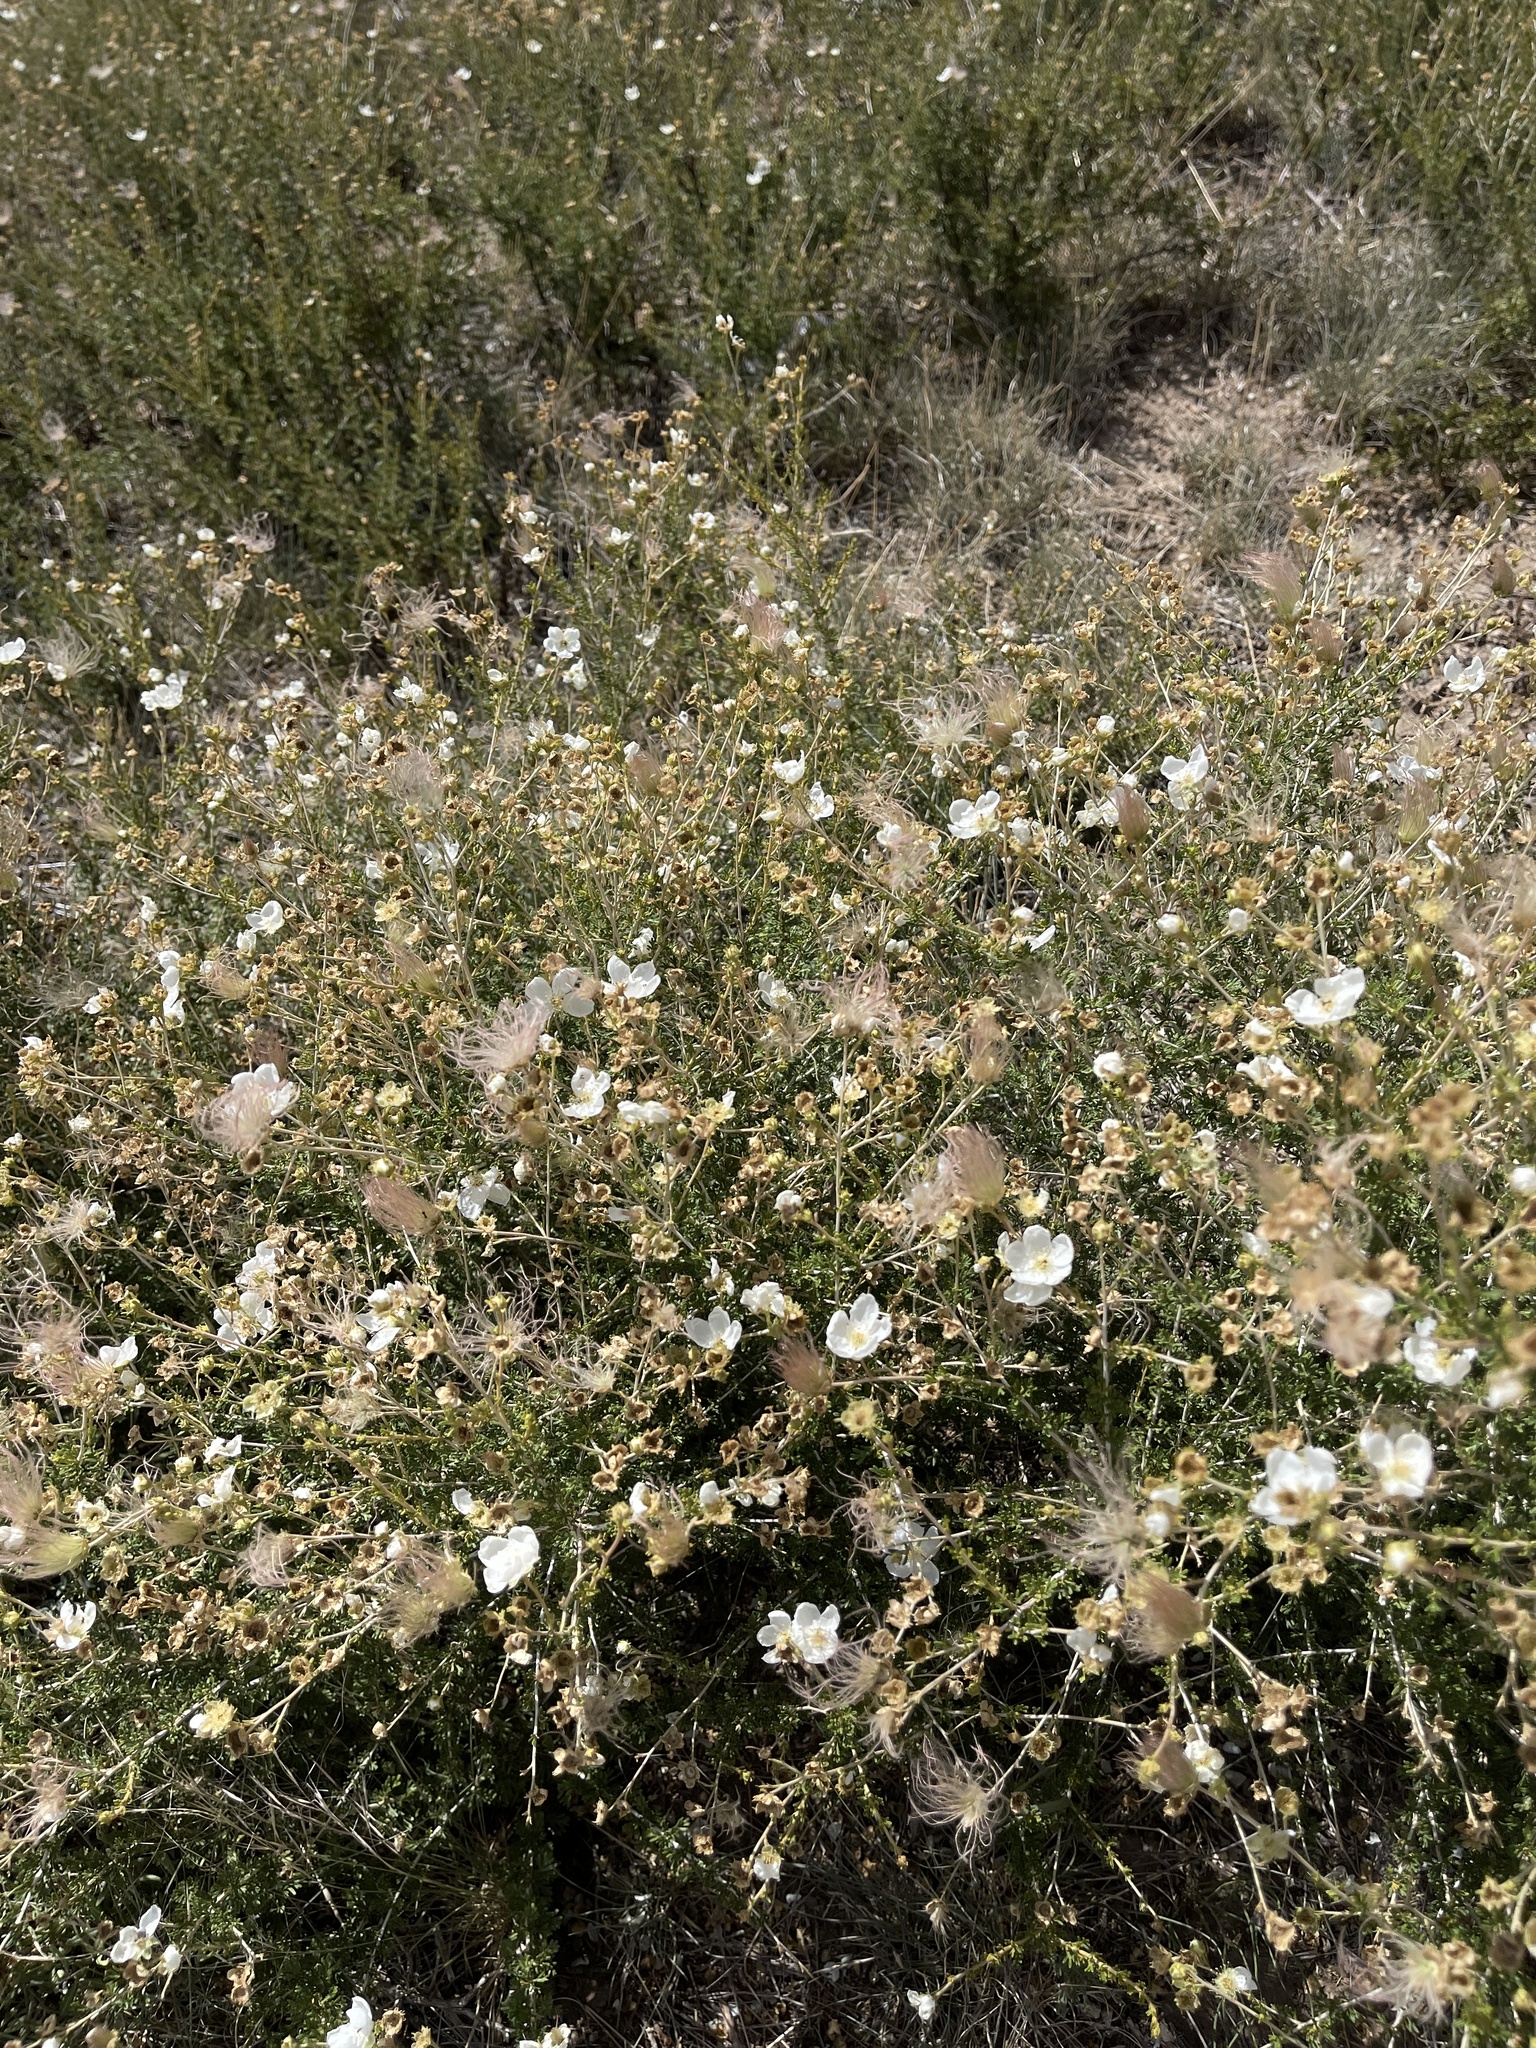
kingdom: Plantae
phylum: Tracheophyta
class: Magnoliopsida
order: Rosales
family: Rosaceae
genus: Fallugia
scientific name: Fallugia paradoxa
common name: Apache-plume
